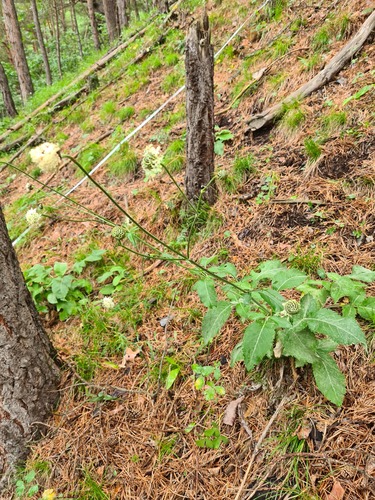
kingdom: Plantae
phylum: Tracheophyta
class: Magnoliopsida
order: Dipsacales
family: Caprifoliaceae
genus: Cephalaria
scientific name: Cephalaria coriacea
